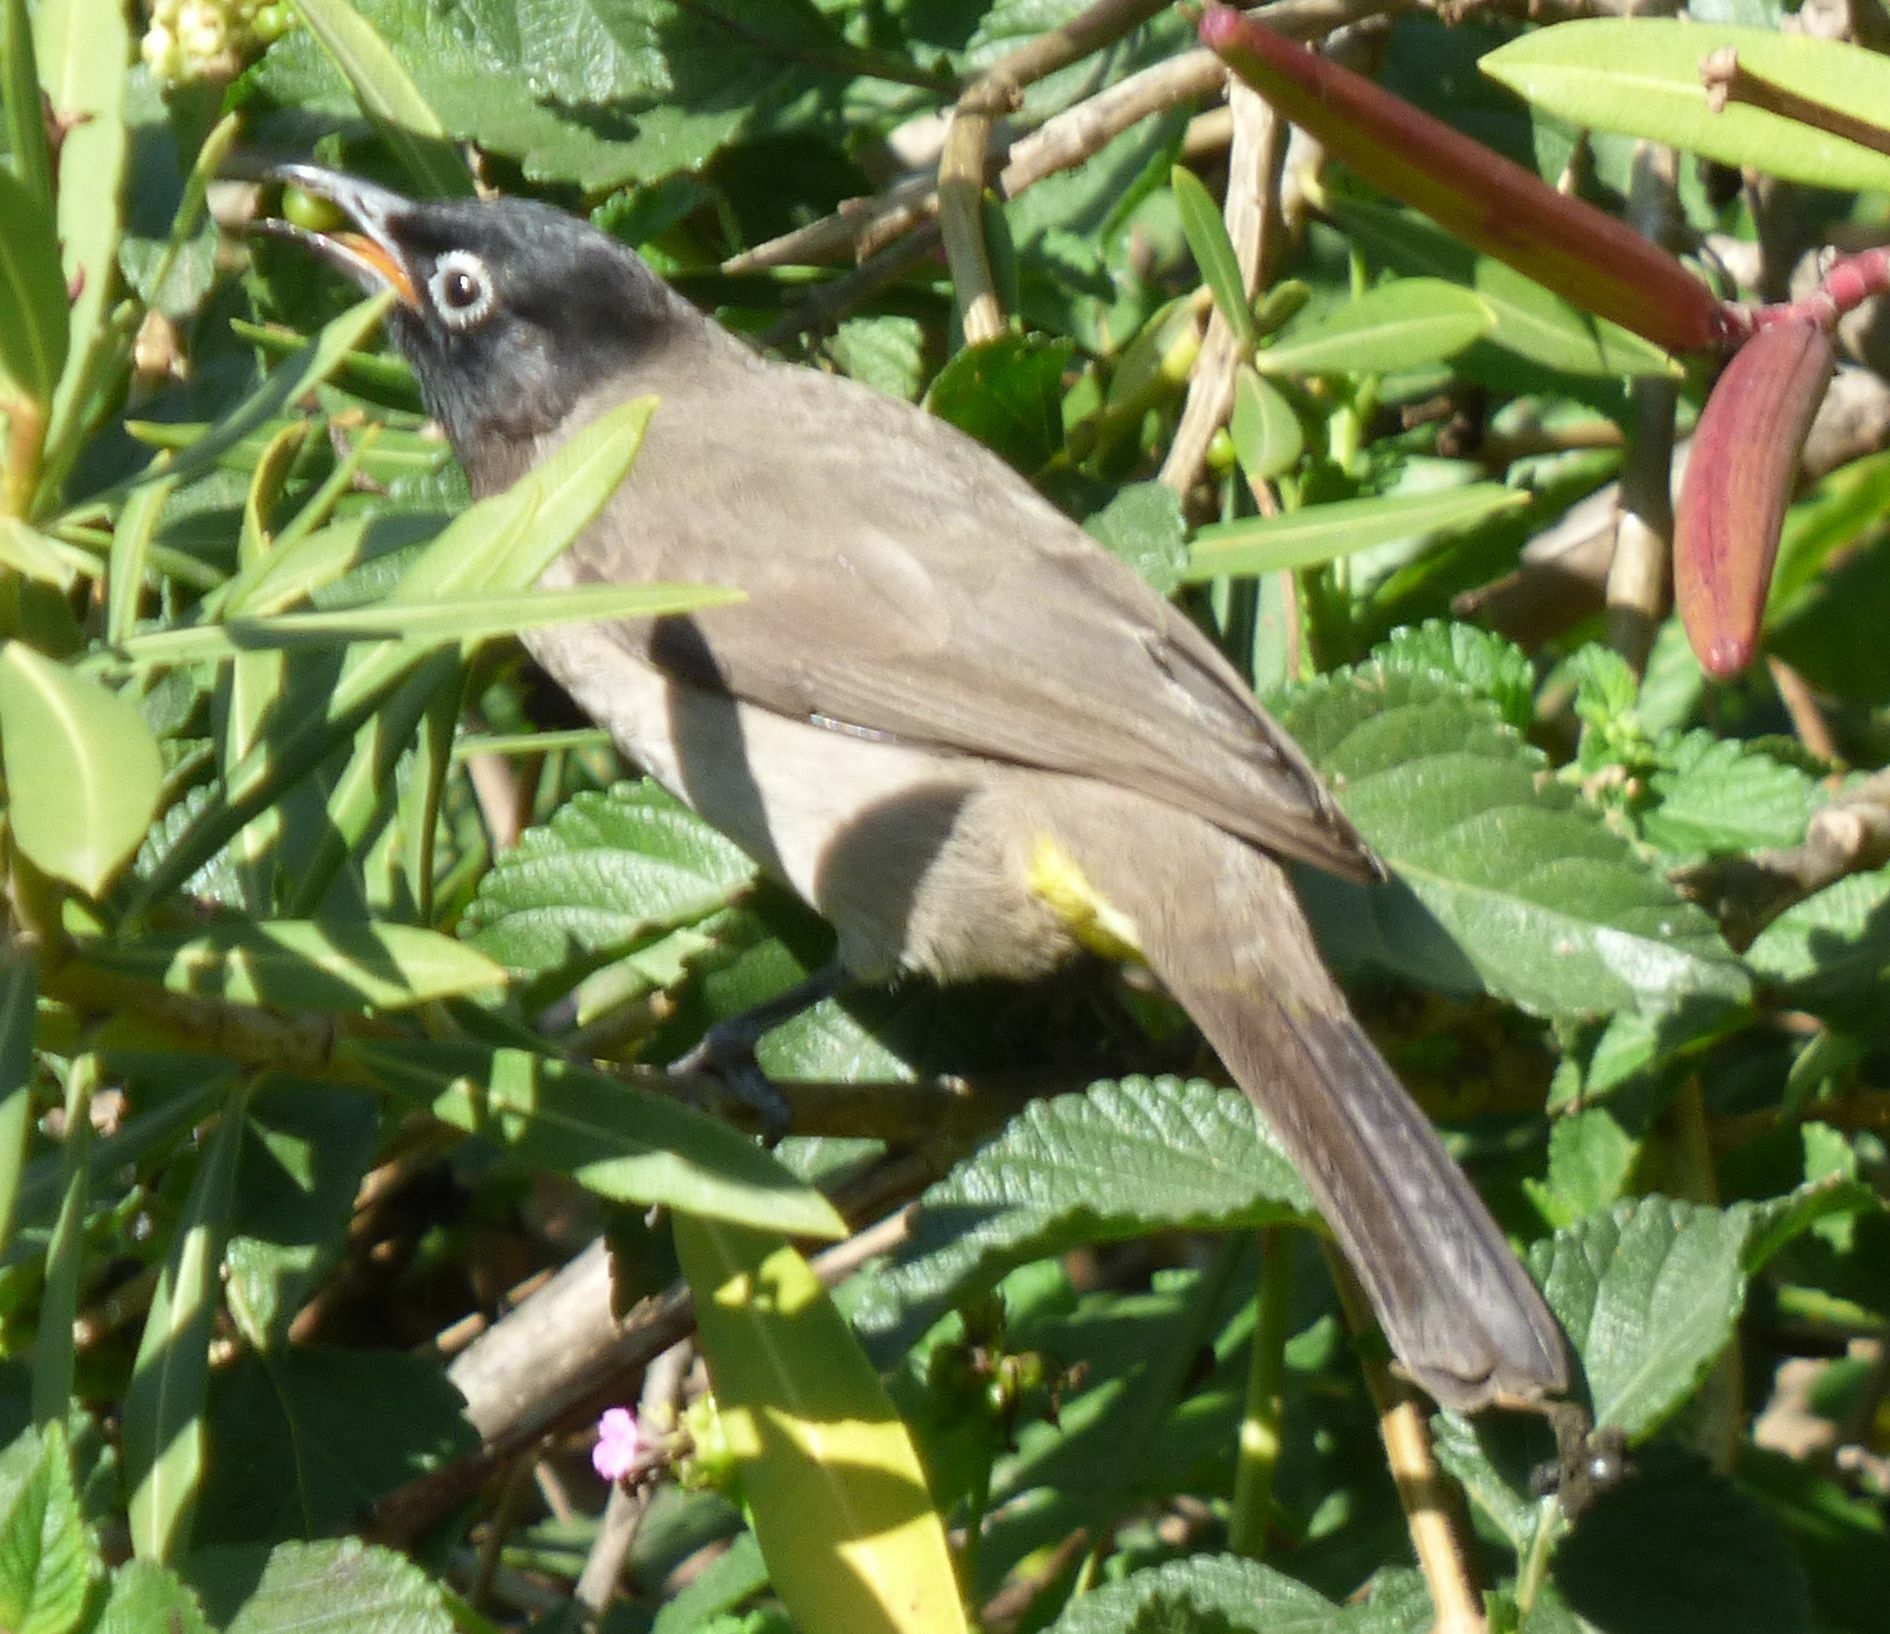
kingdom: Animalia
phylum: Chordata
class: Aves
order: Passeriformes
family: Pycnonotidae
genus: Pycnonotus
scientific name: Pycnonotus xanthopygos
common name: White-spectacled bulbul
